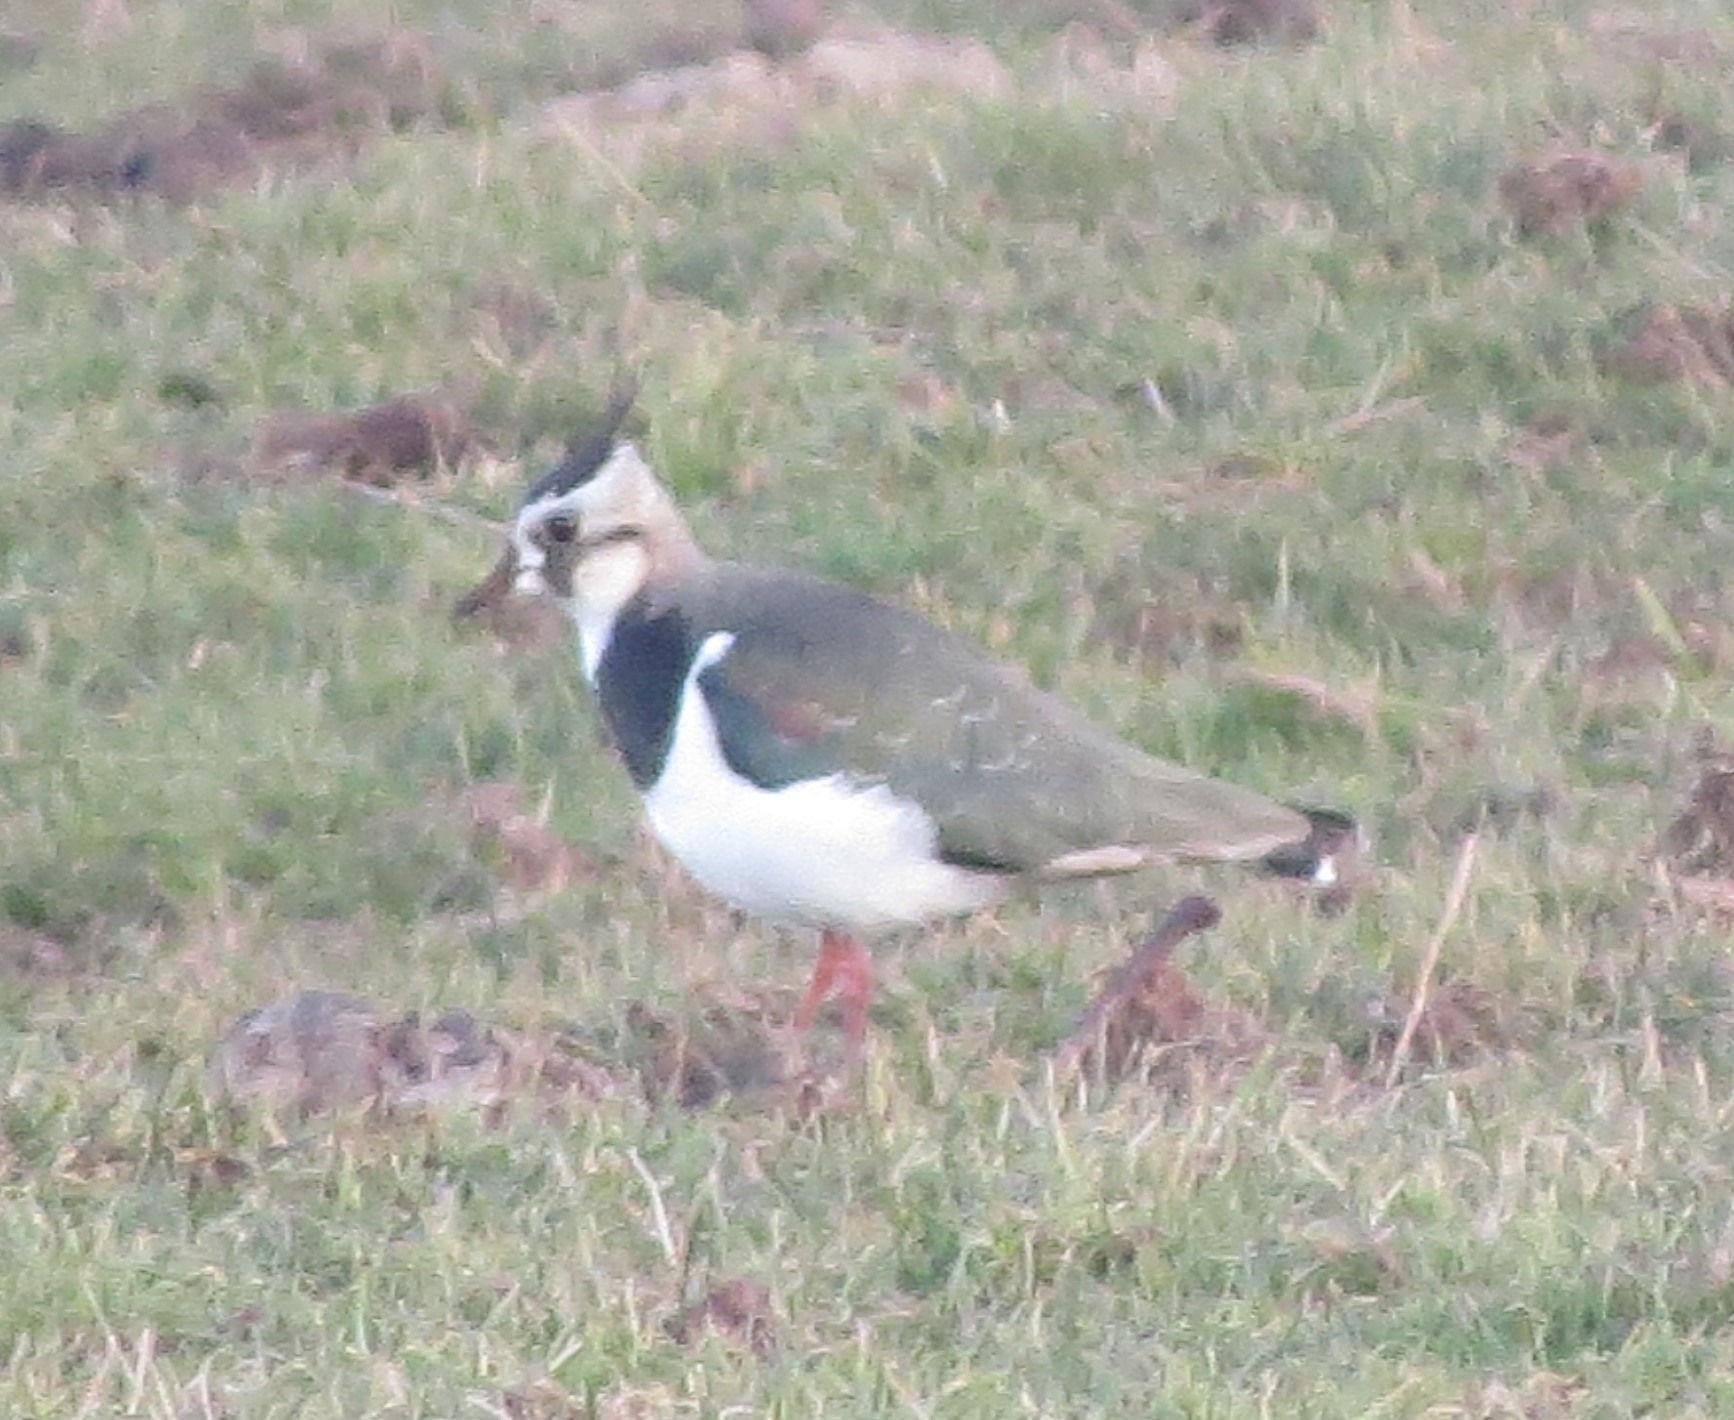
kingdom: Animalia
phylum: Chordata
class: Aves
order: Charadriiformes
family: Charadriidae
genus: Vanellus
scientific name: Vanellus vanellus
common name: Northern lapwing
